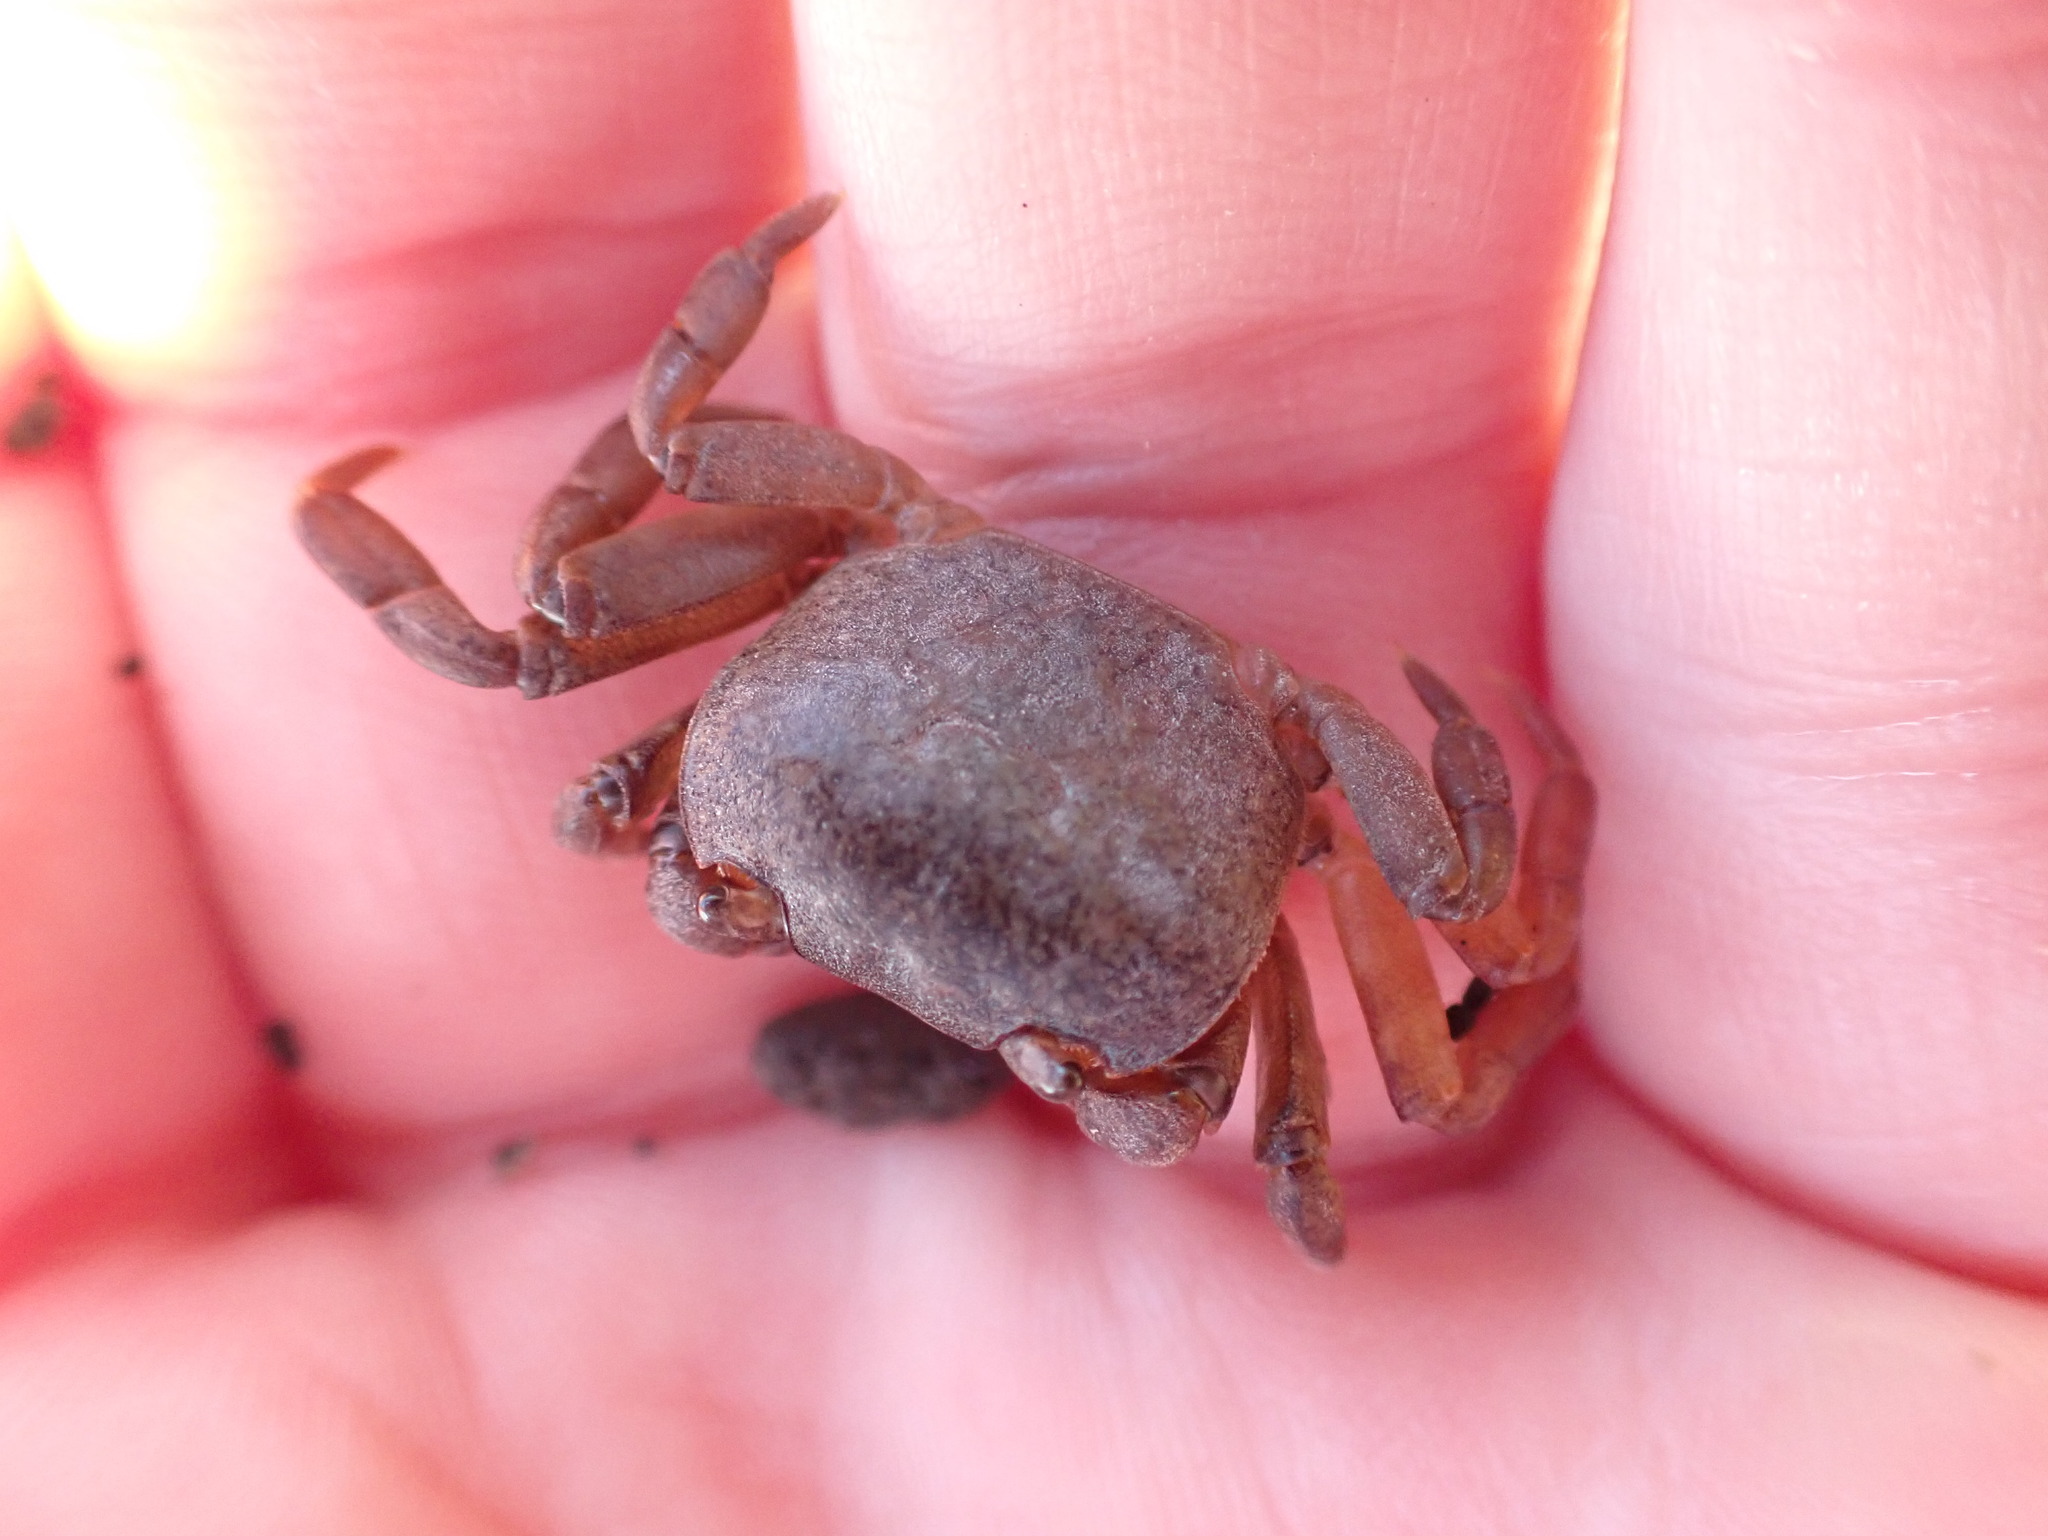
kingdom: Animalia
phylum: Arthropoda
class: Malacostraca
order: Decapoda
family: Varunidae
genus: Cyclograpsus
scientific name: Cyclograpsus lavauxi
